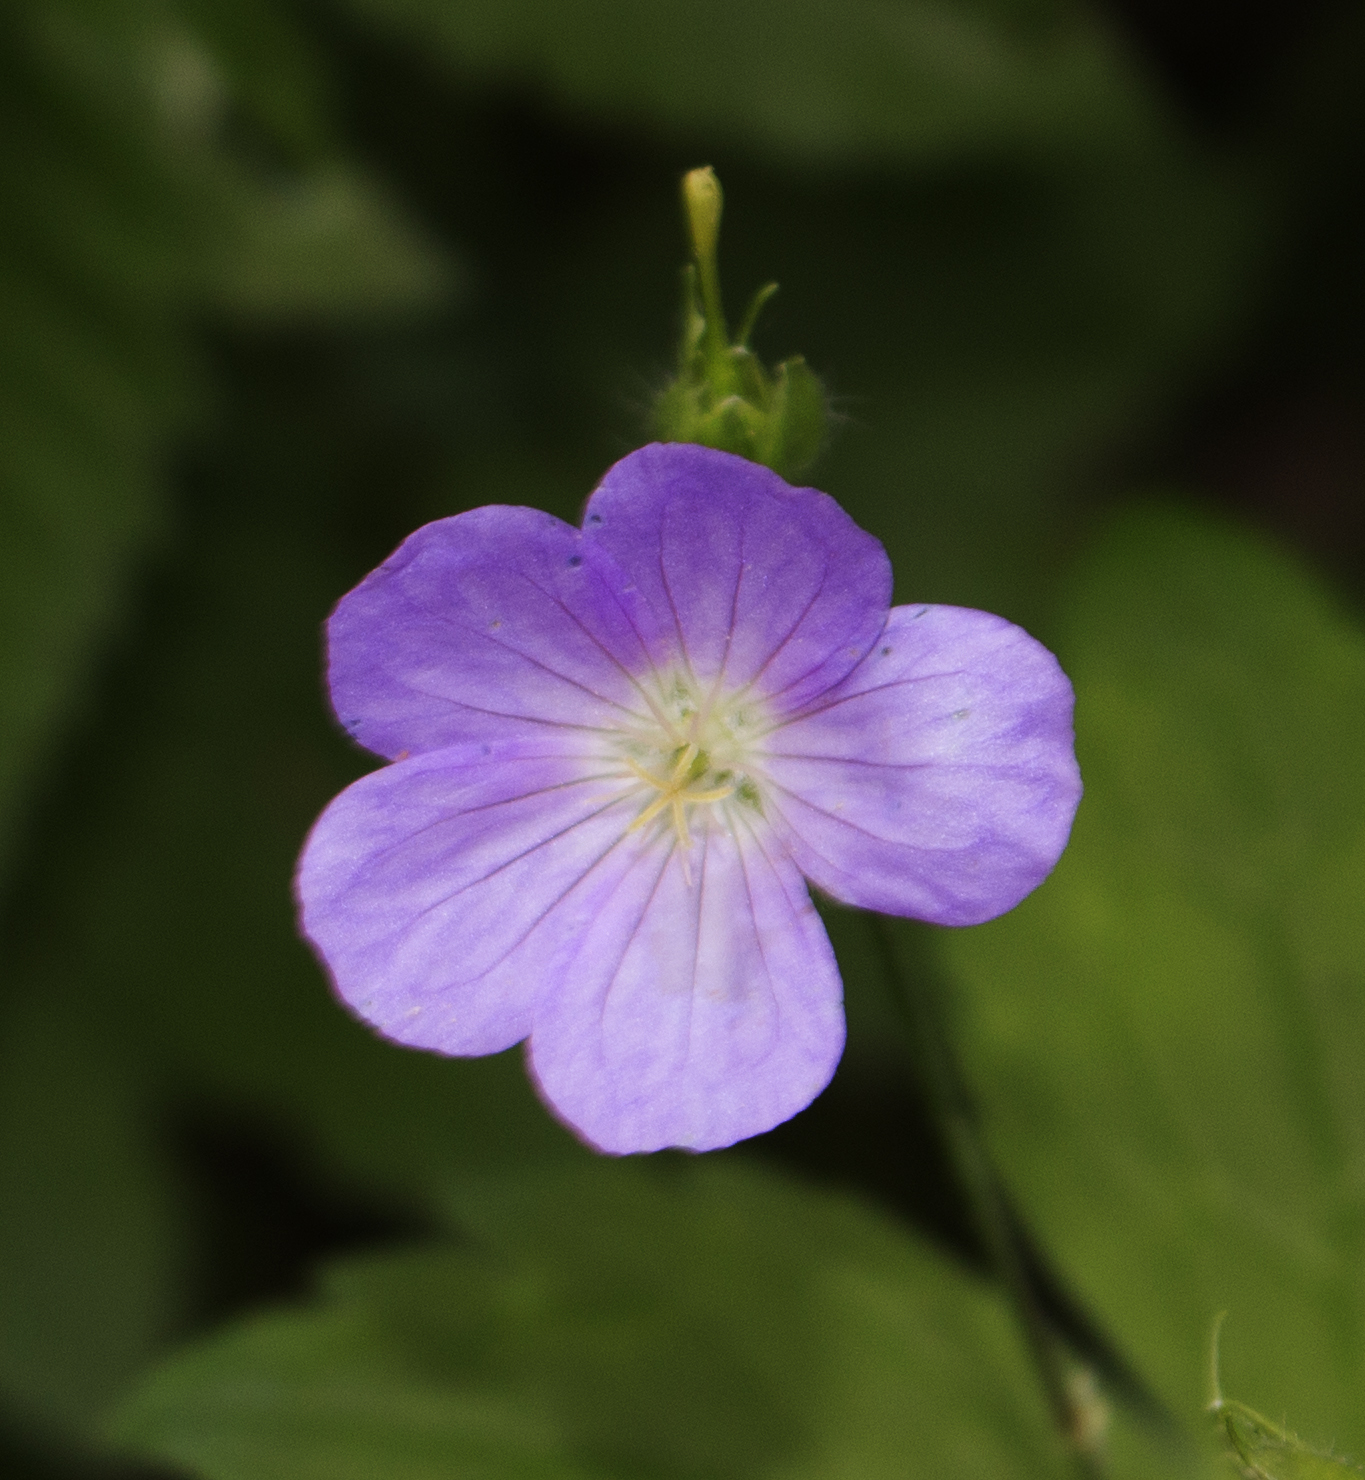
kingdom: Plantae
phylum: Tracheophyta
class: Magnoliopsida
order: Geraniales
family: Geraniaceae
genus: Geranium
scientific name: Geranium maculatum
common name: Spotted geranium
